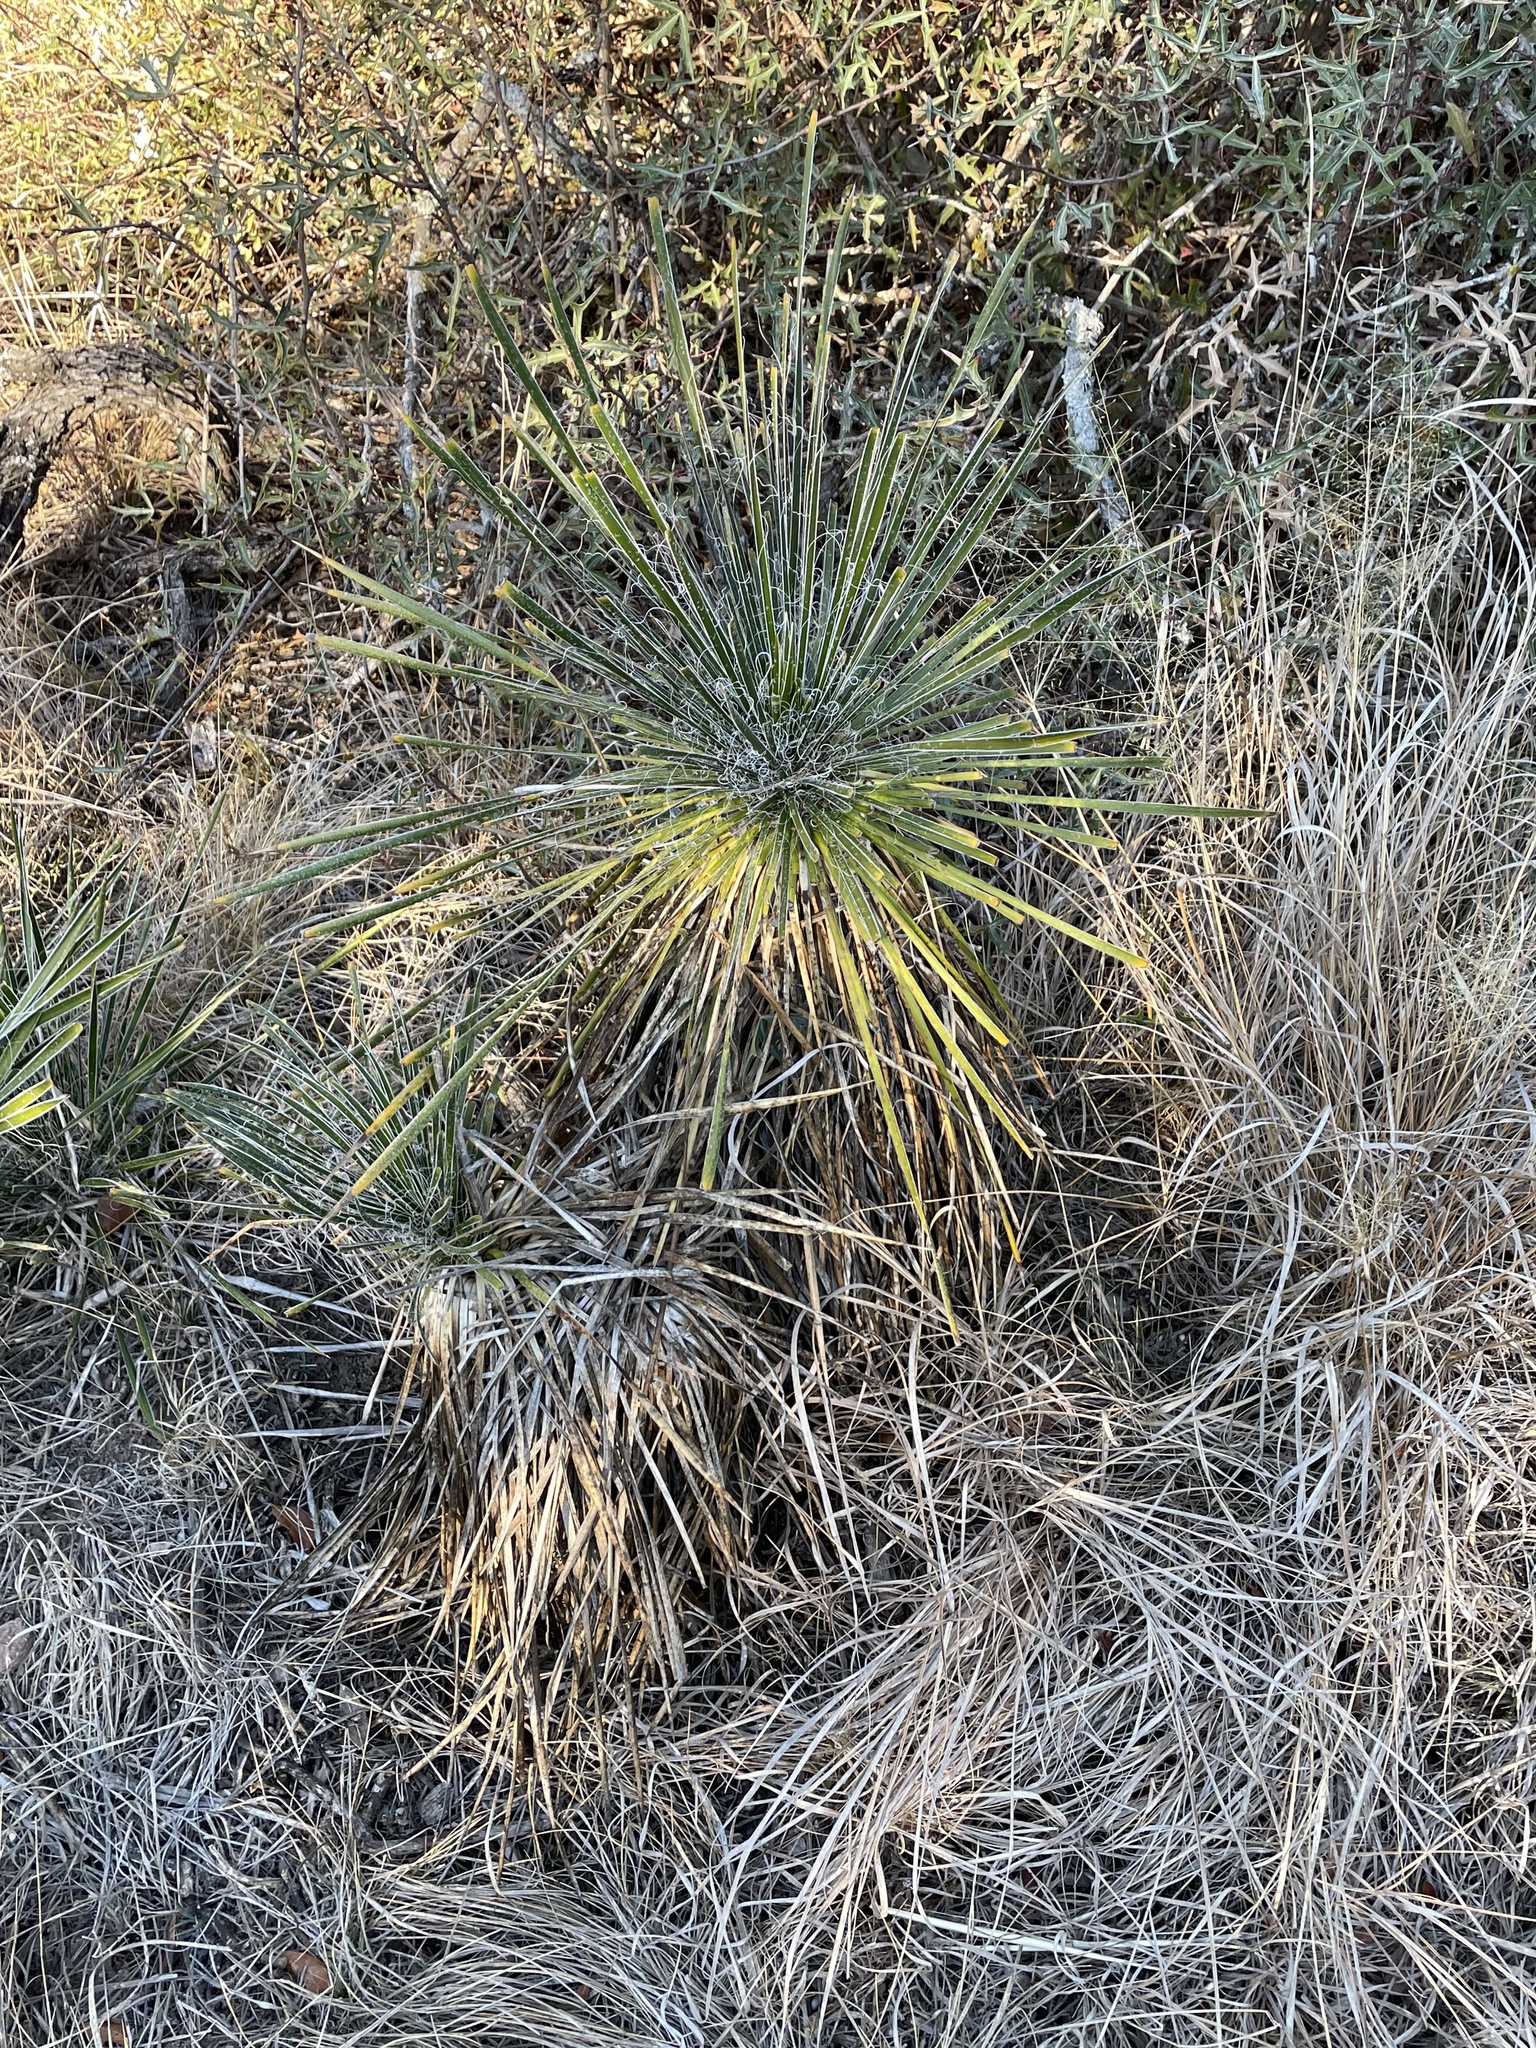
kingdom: Plantae
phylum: Tracheophyta
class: Liliopsida
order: Asparagales
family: Asparagaceae
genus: Yucca
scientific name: Yucca constricta
